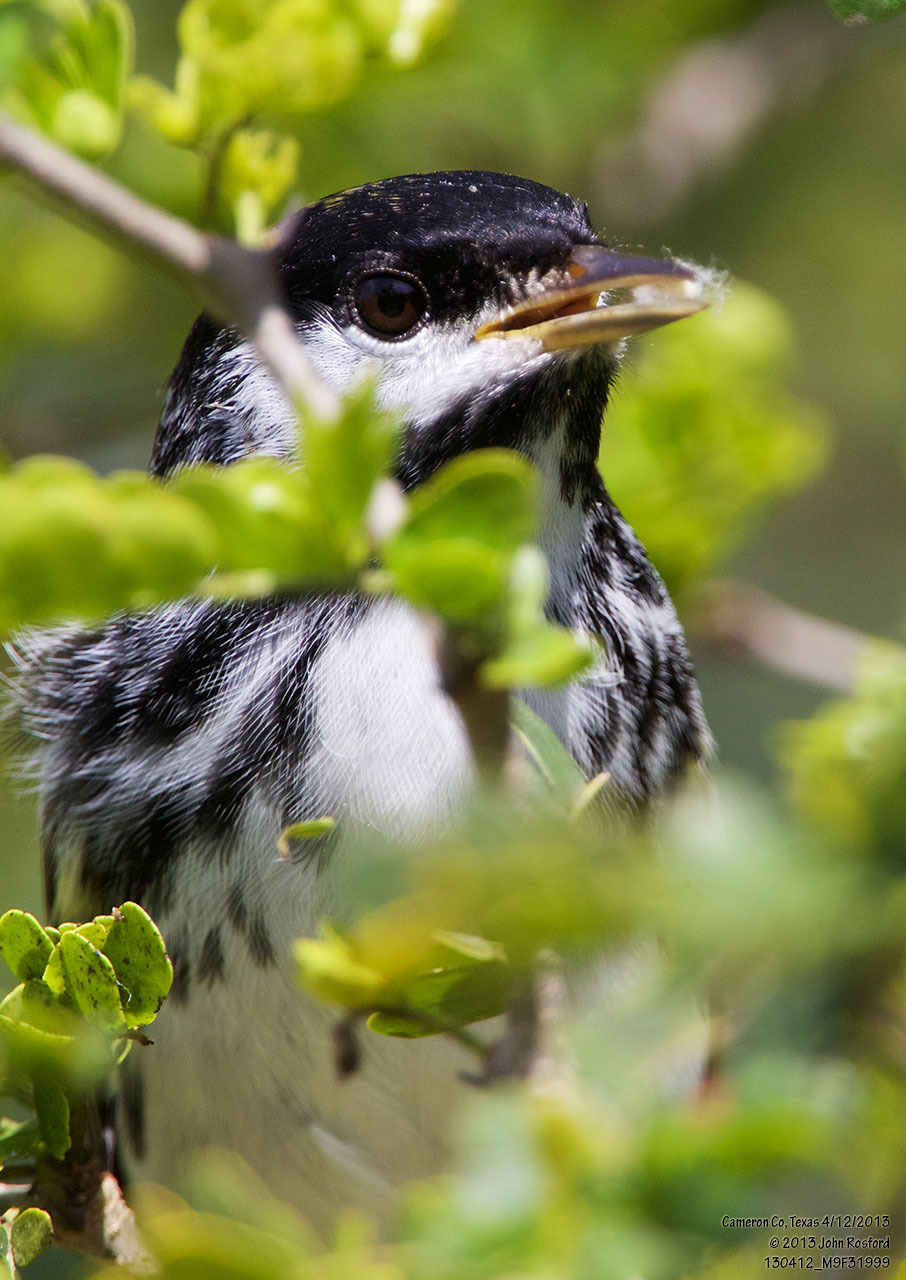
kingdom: Animalia
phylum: Chordata
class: Aves
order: Passeriformes
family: Parulidae
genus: Setophaga
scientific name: Setophaga striata
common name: Blackpoll warbler
